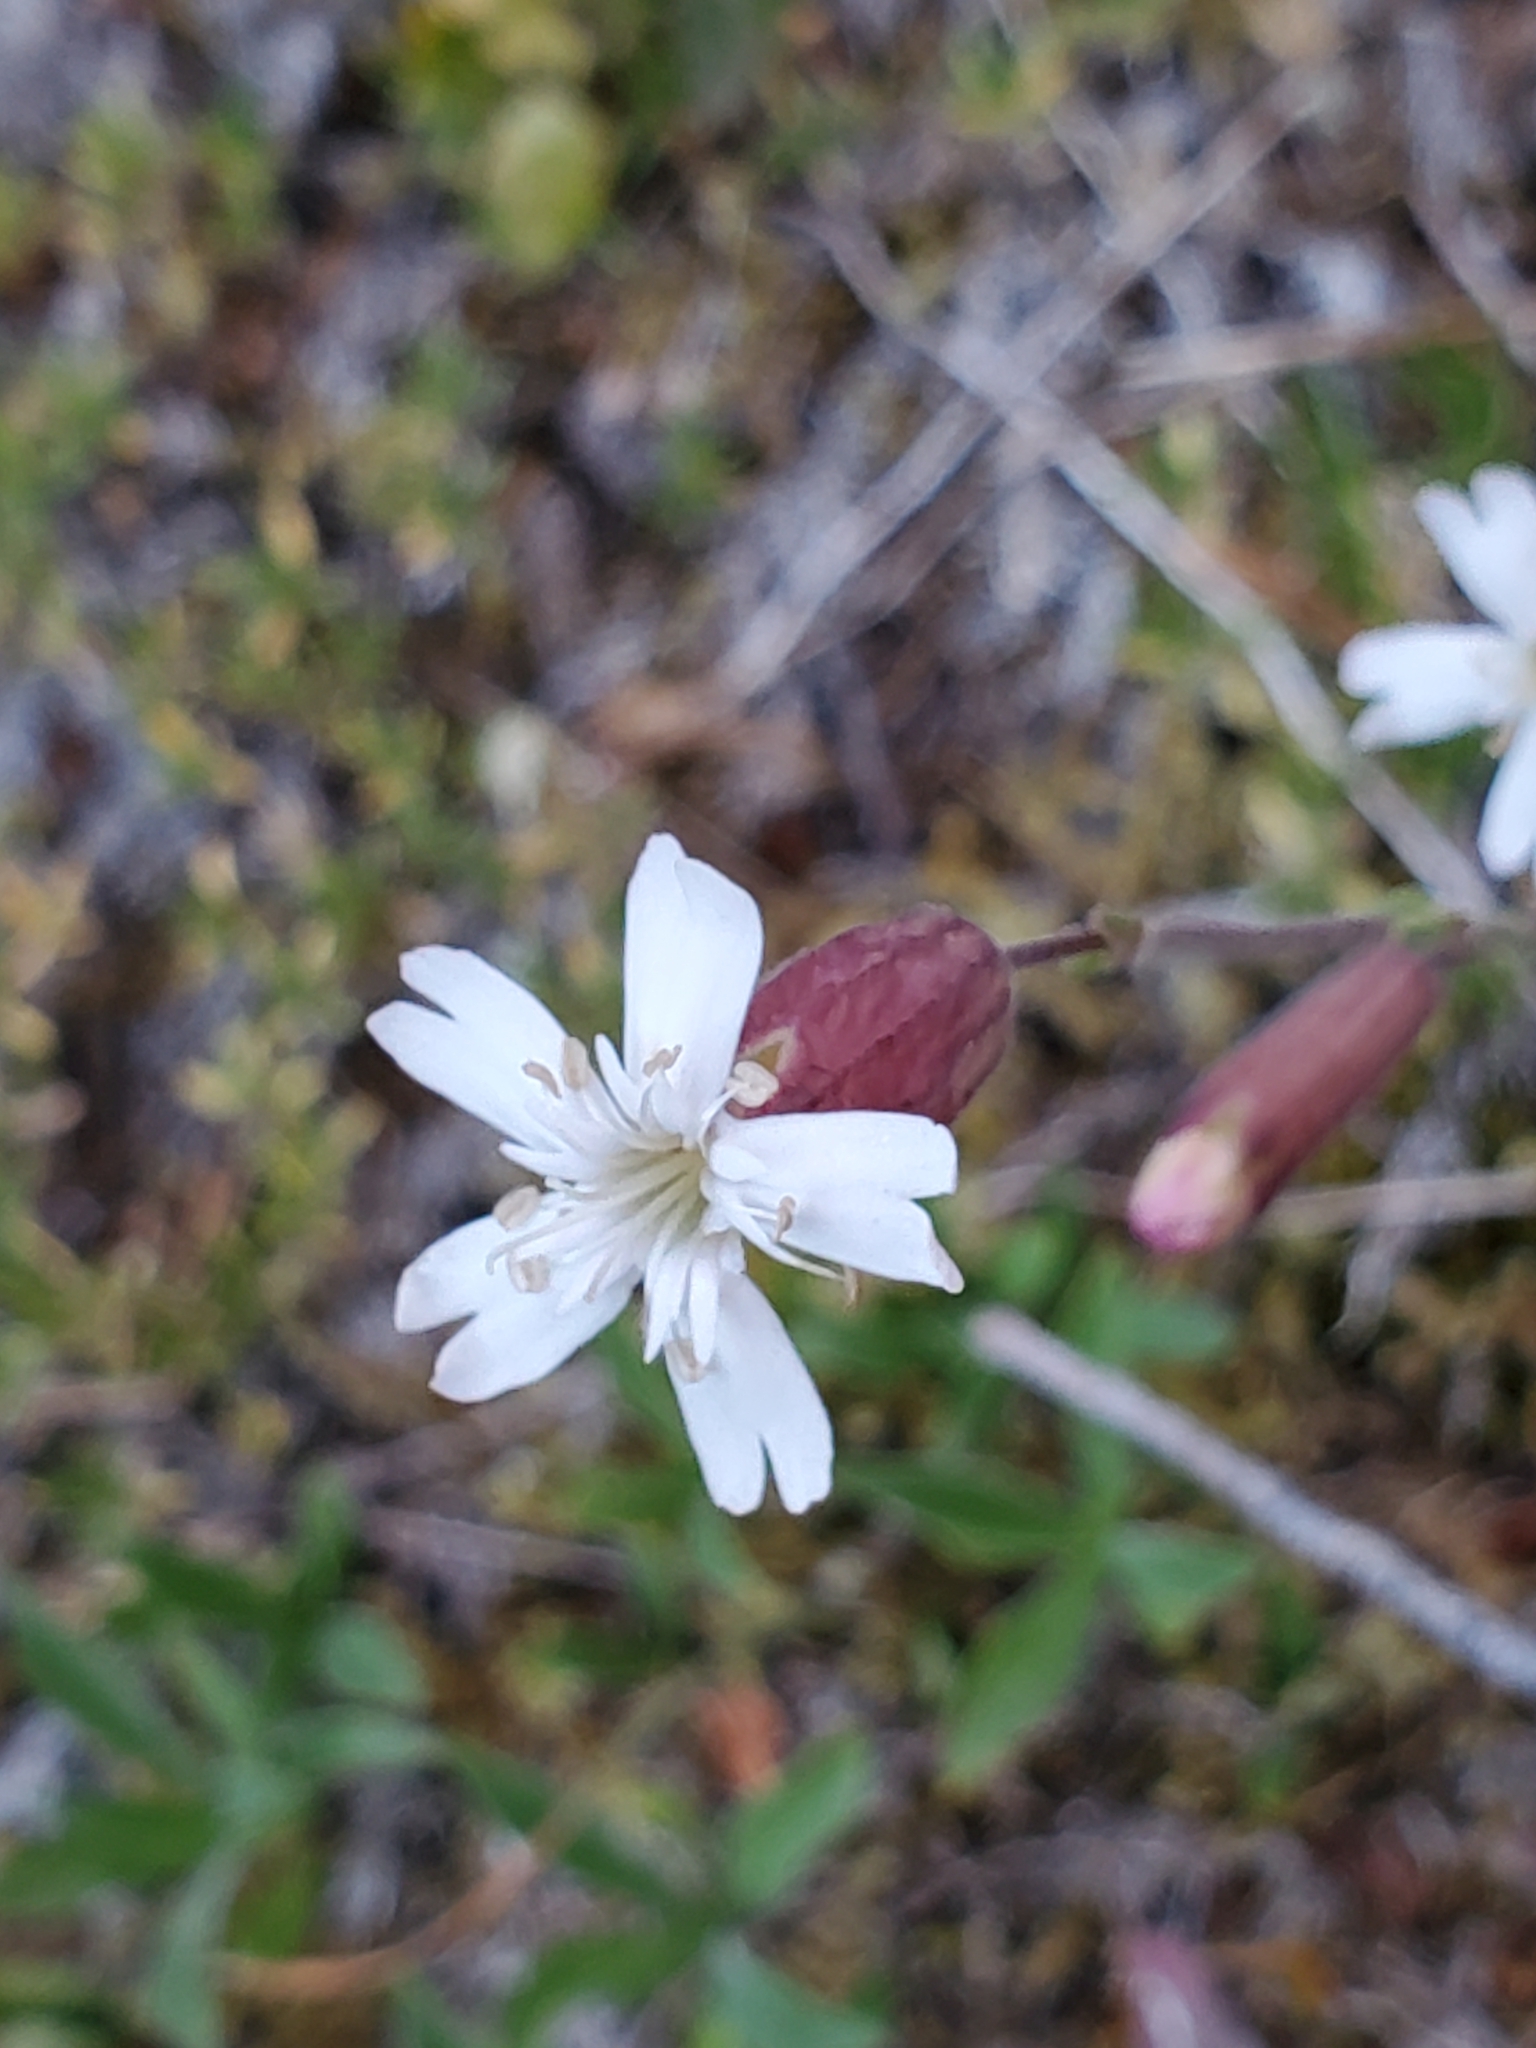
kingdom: Plantae
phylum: Tracheophyta
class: Magnoliopsida
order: Caryophyllales
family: Caryophyllaceae
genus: Silene
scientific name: Silene douglasii
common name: Douglas's catchfly
